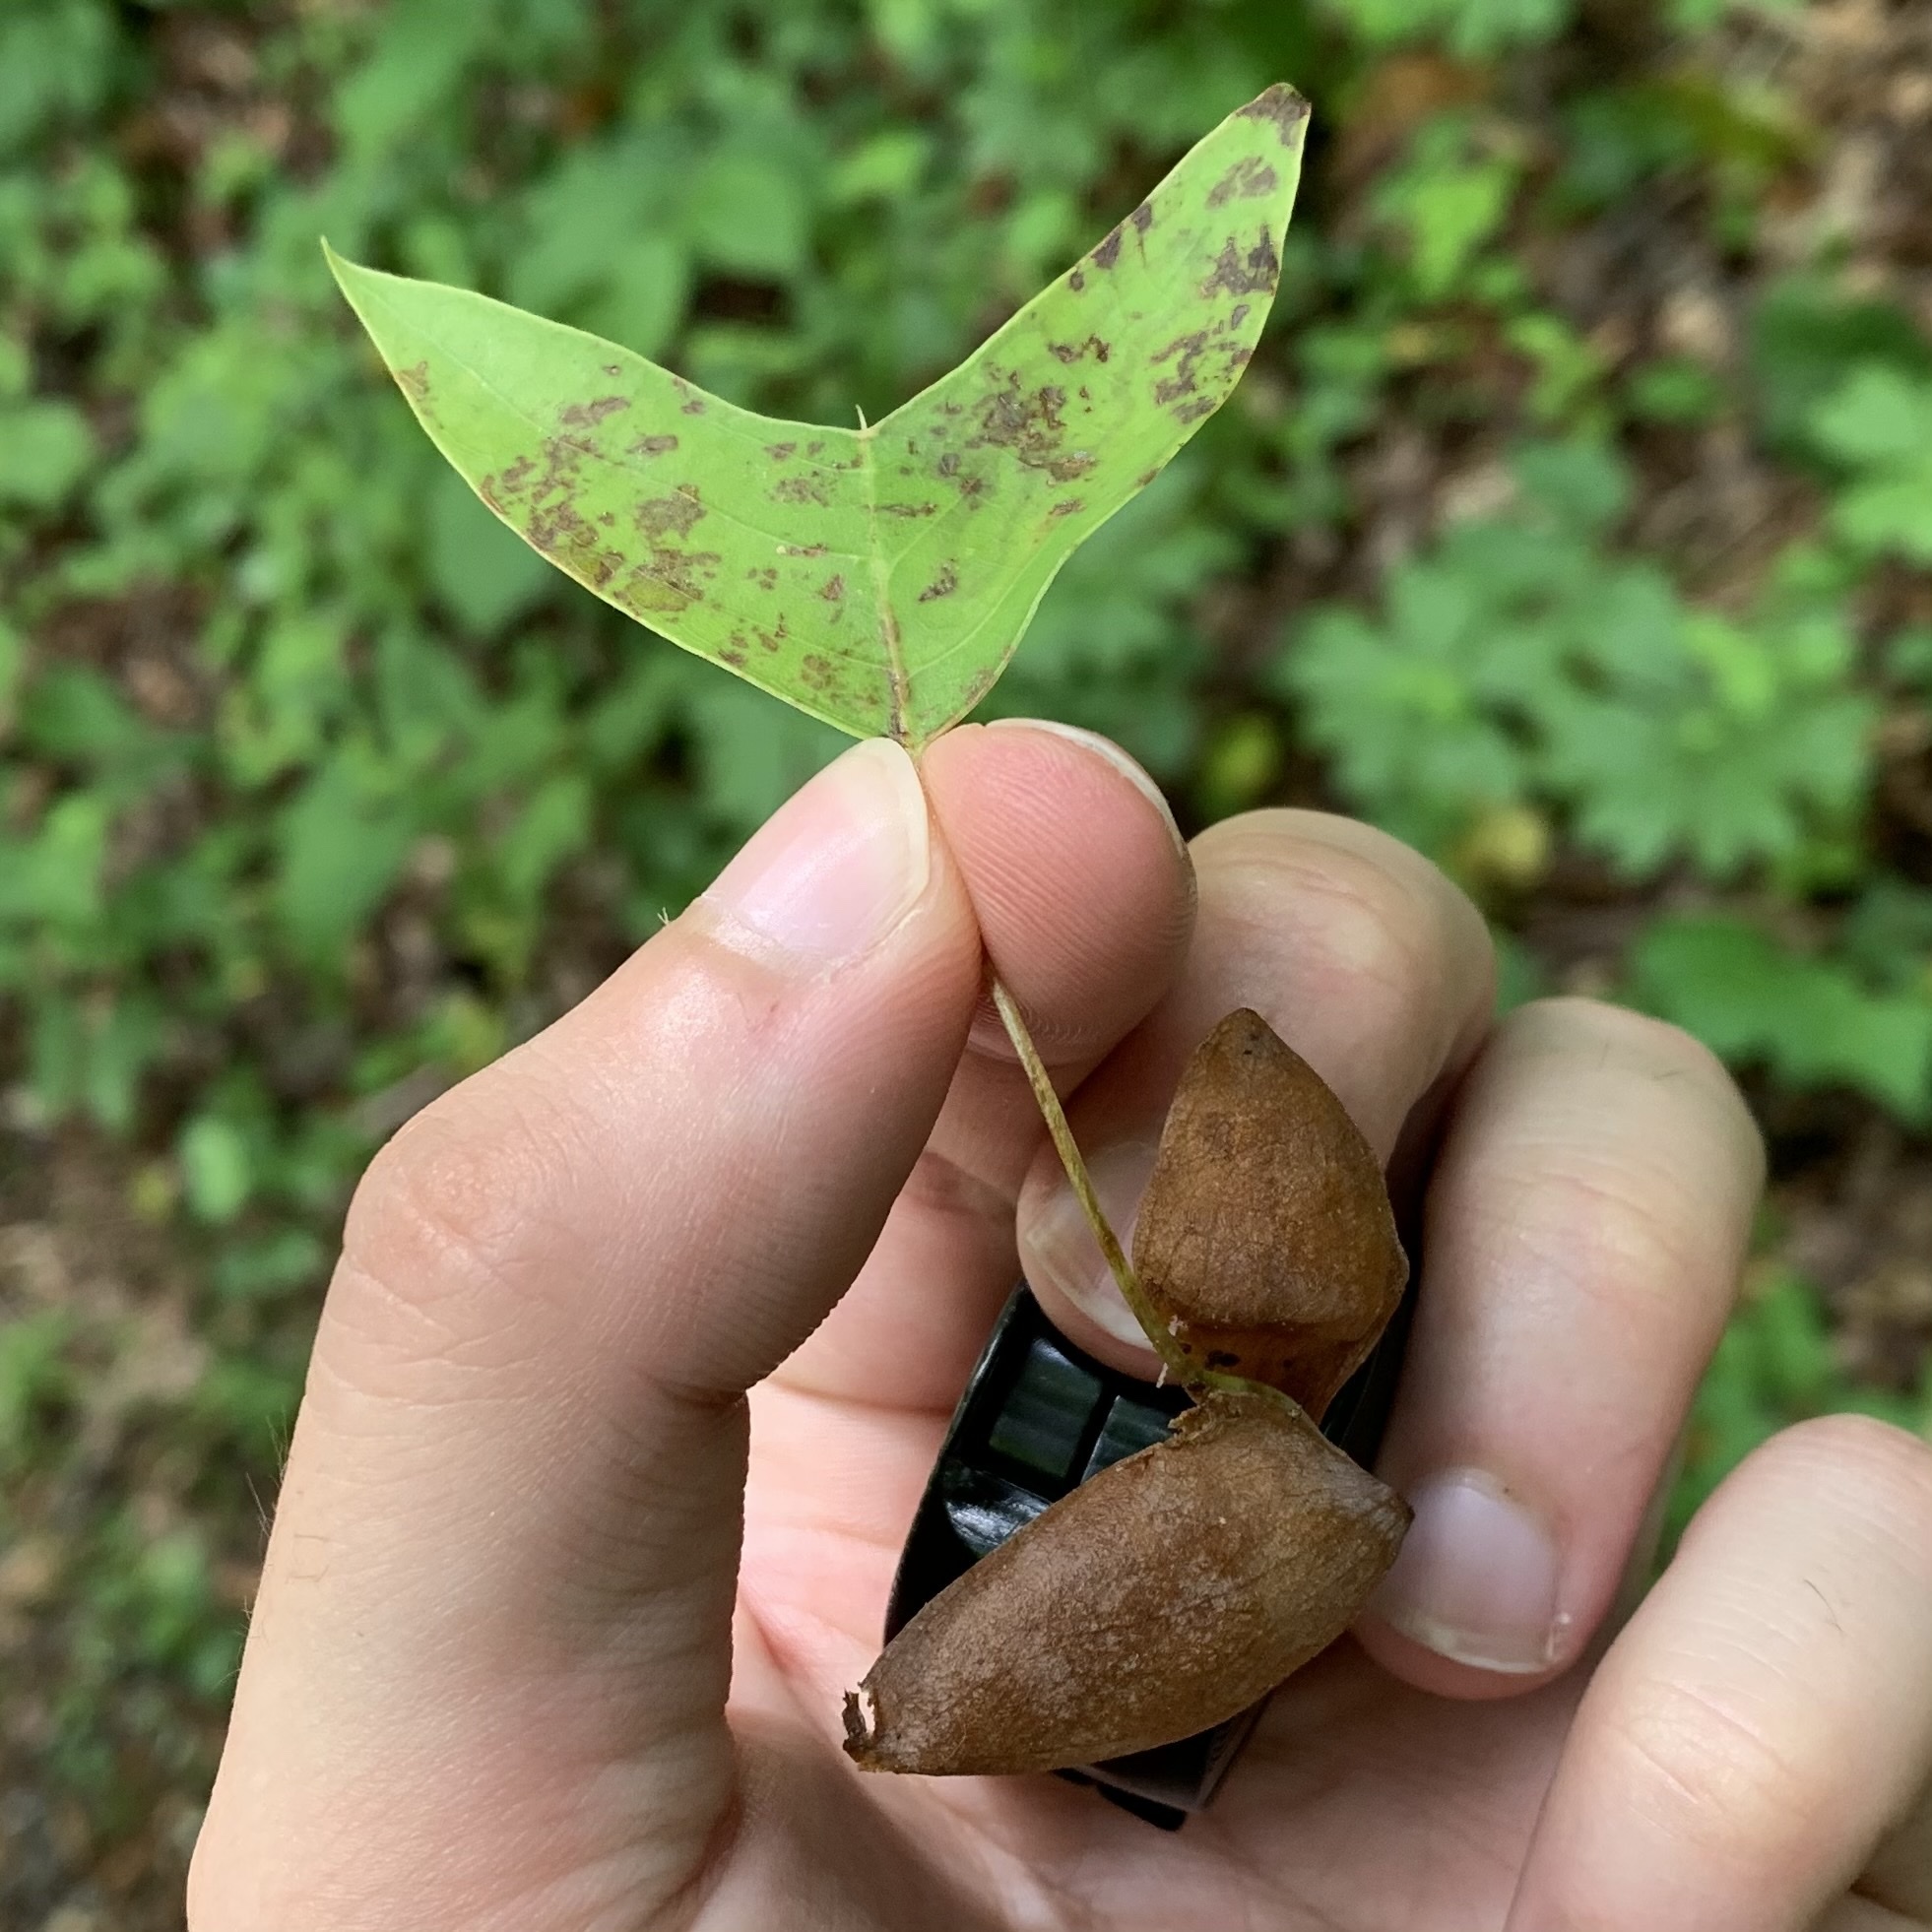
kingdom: Animalia
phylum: Arthropoda
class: Insecta
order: Lepidoptera
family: Gracillariidae
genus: Phyllocnistis
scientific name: Phyllocnistis liriodendronella
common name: Tulip tree leaf miner
